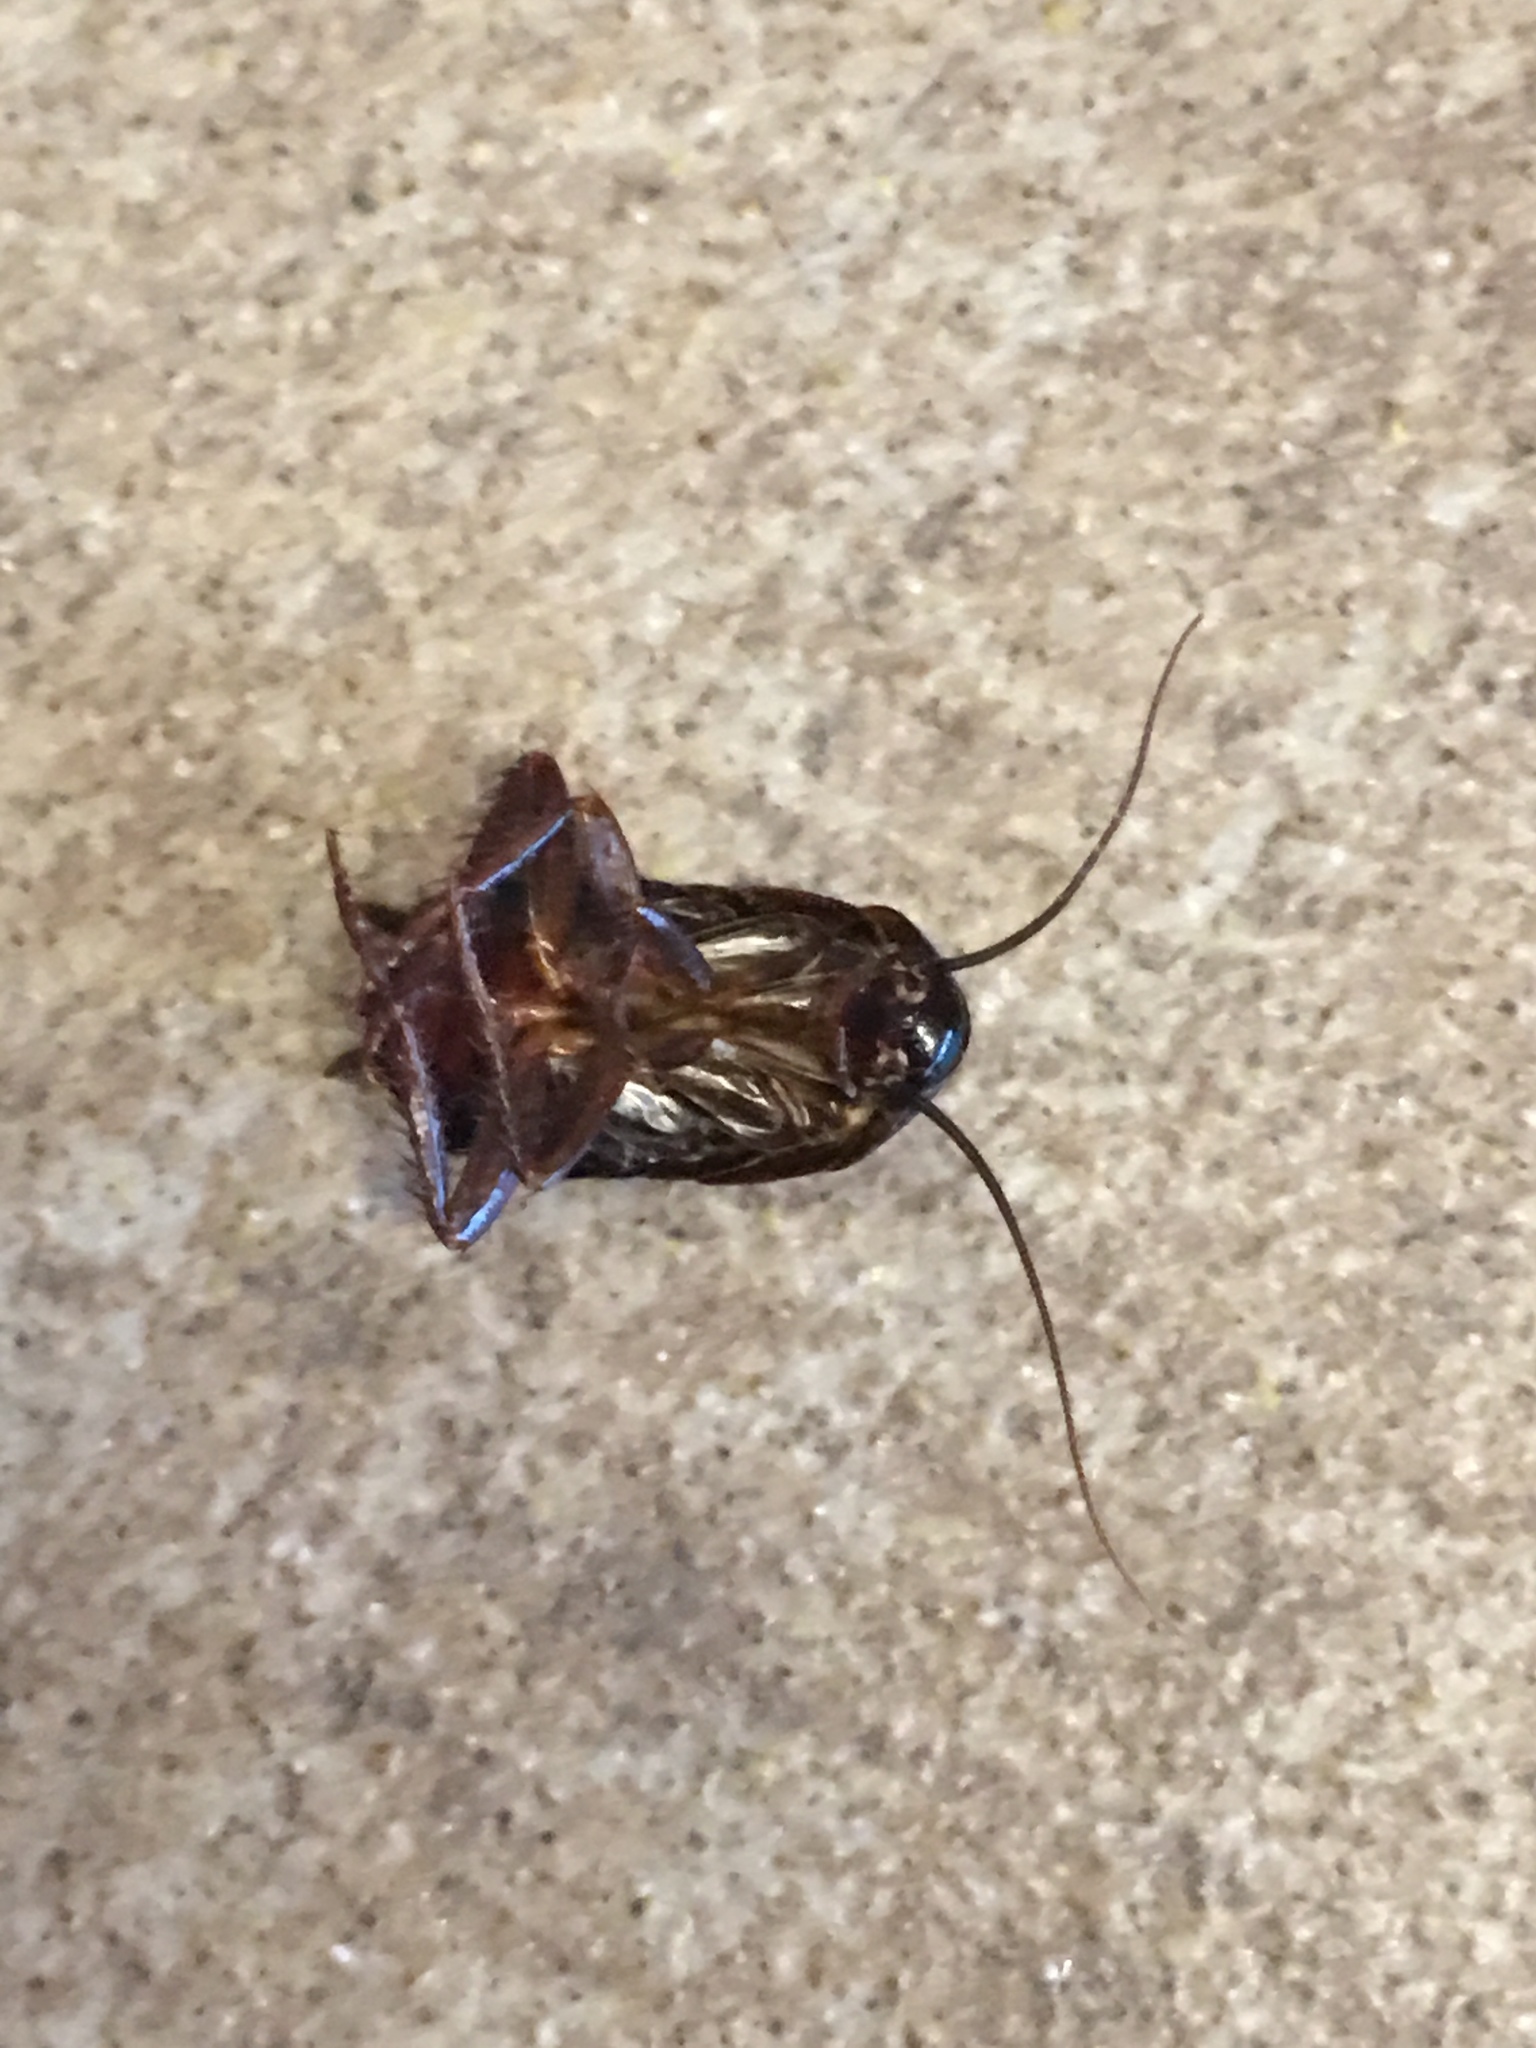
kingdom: Animalia
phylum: Arthropoda
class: Insecta
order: Blattodea
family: Blattidae
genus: Blatta
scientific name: Blatta orientalis
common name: Oriental cockroach
